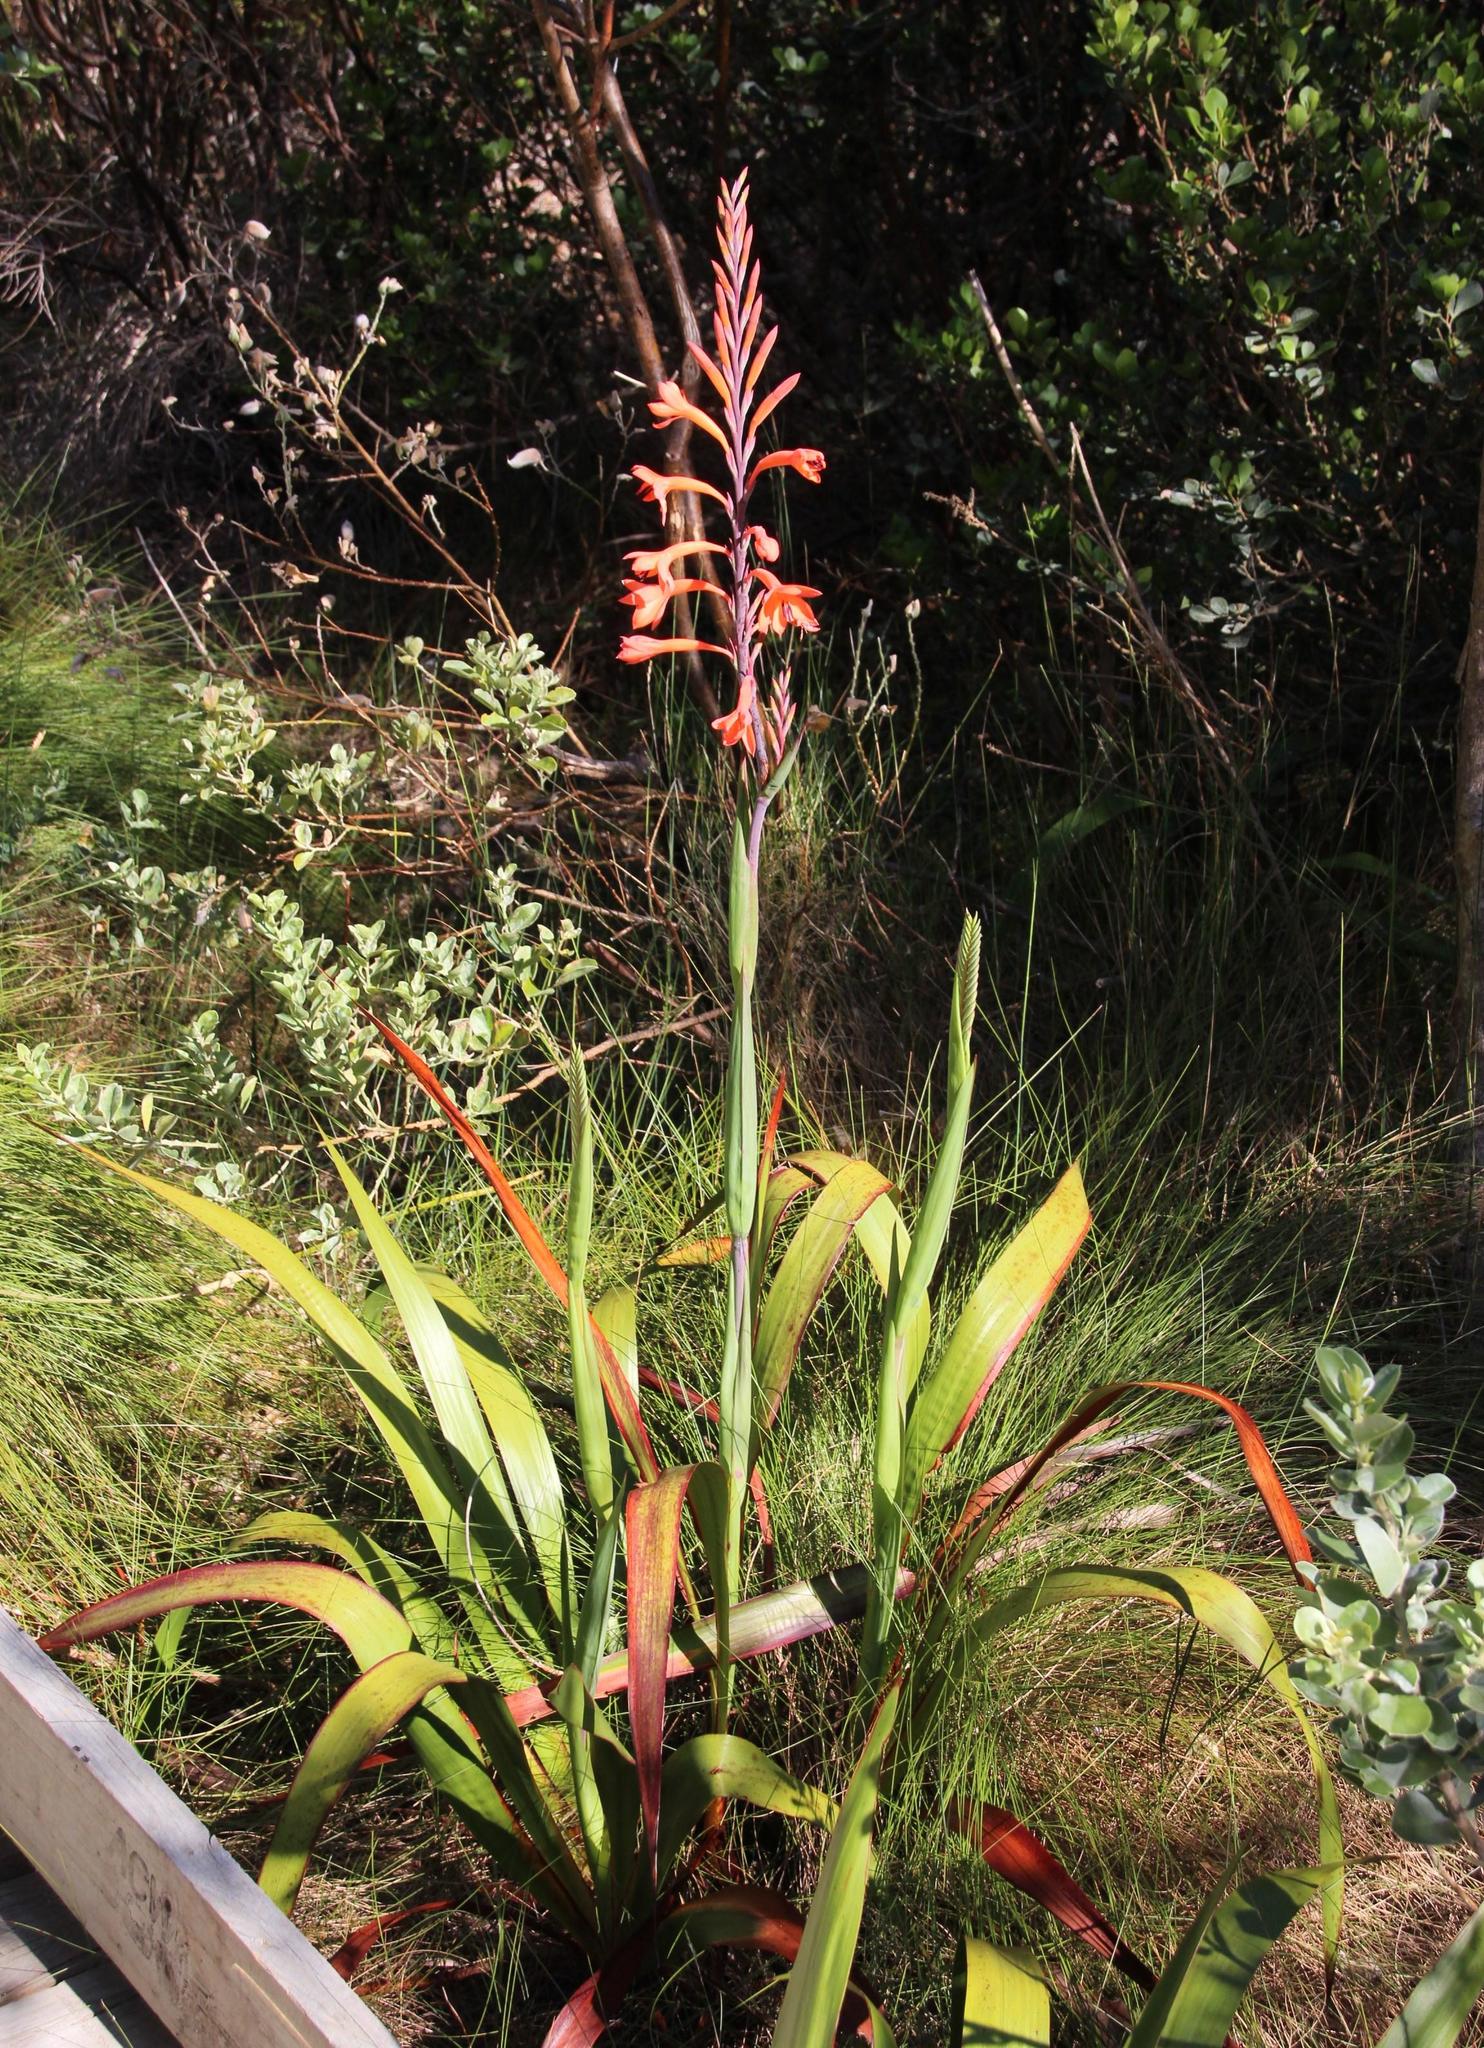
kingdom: Plantae
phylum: Tracheophyta
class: Liliopsida
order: Asparagales
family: Iridaceae
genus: Watsonia
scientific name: Watsonia tabularis
